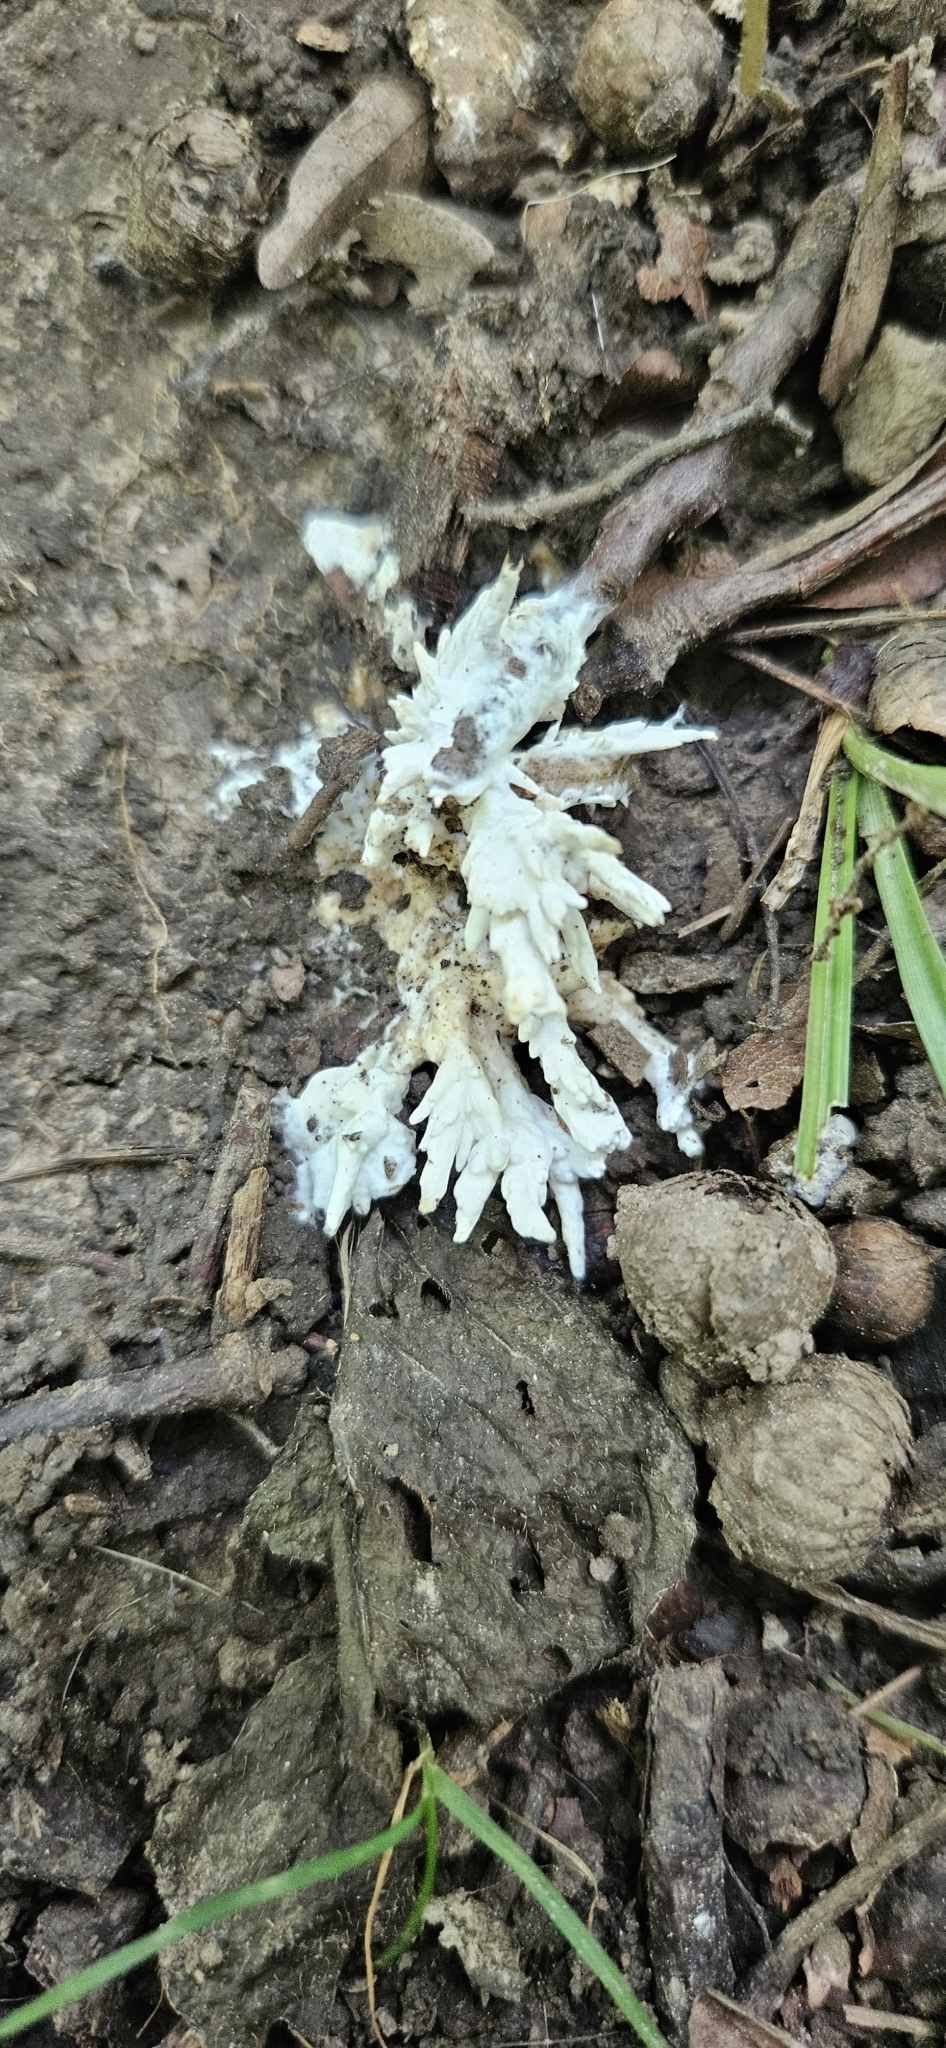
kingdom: Fungi
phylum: Basidiomycota
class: Agaricomycetes
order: Sebacinales
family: Sebacinaceae
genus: Sebacina
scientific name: Sebacina incrustans
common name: Enveloping crust
